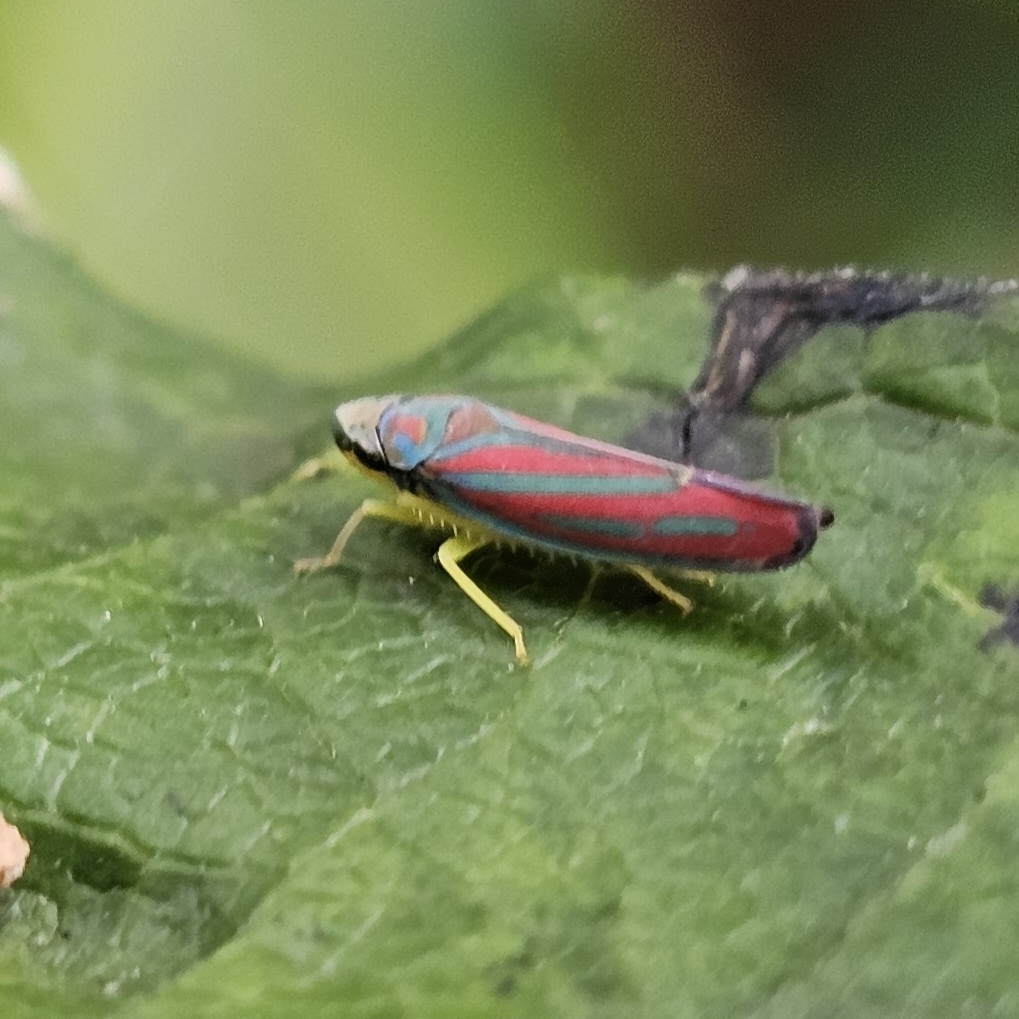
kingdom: Animalia
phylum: Arthropoda
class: Insecta
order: Hemiptera
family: Cicadellidae
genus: Graphocephala
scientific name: Graphocephala coccinea
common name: Candy-striped leafhopper
